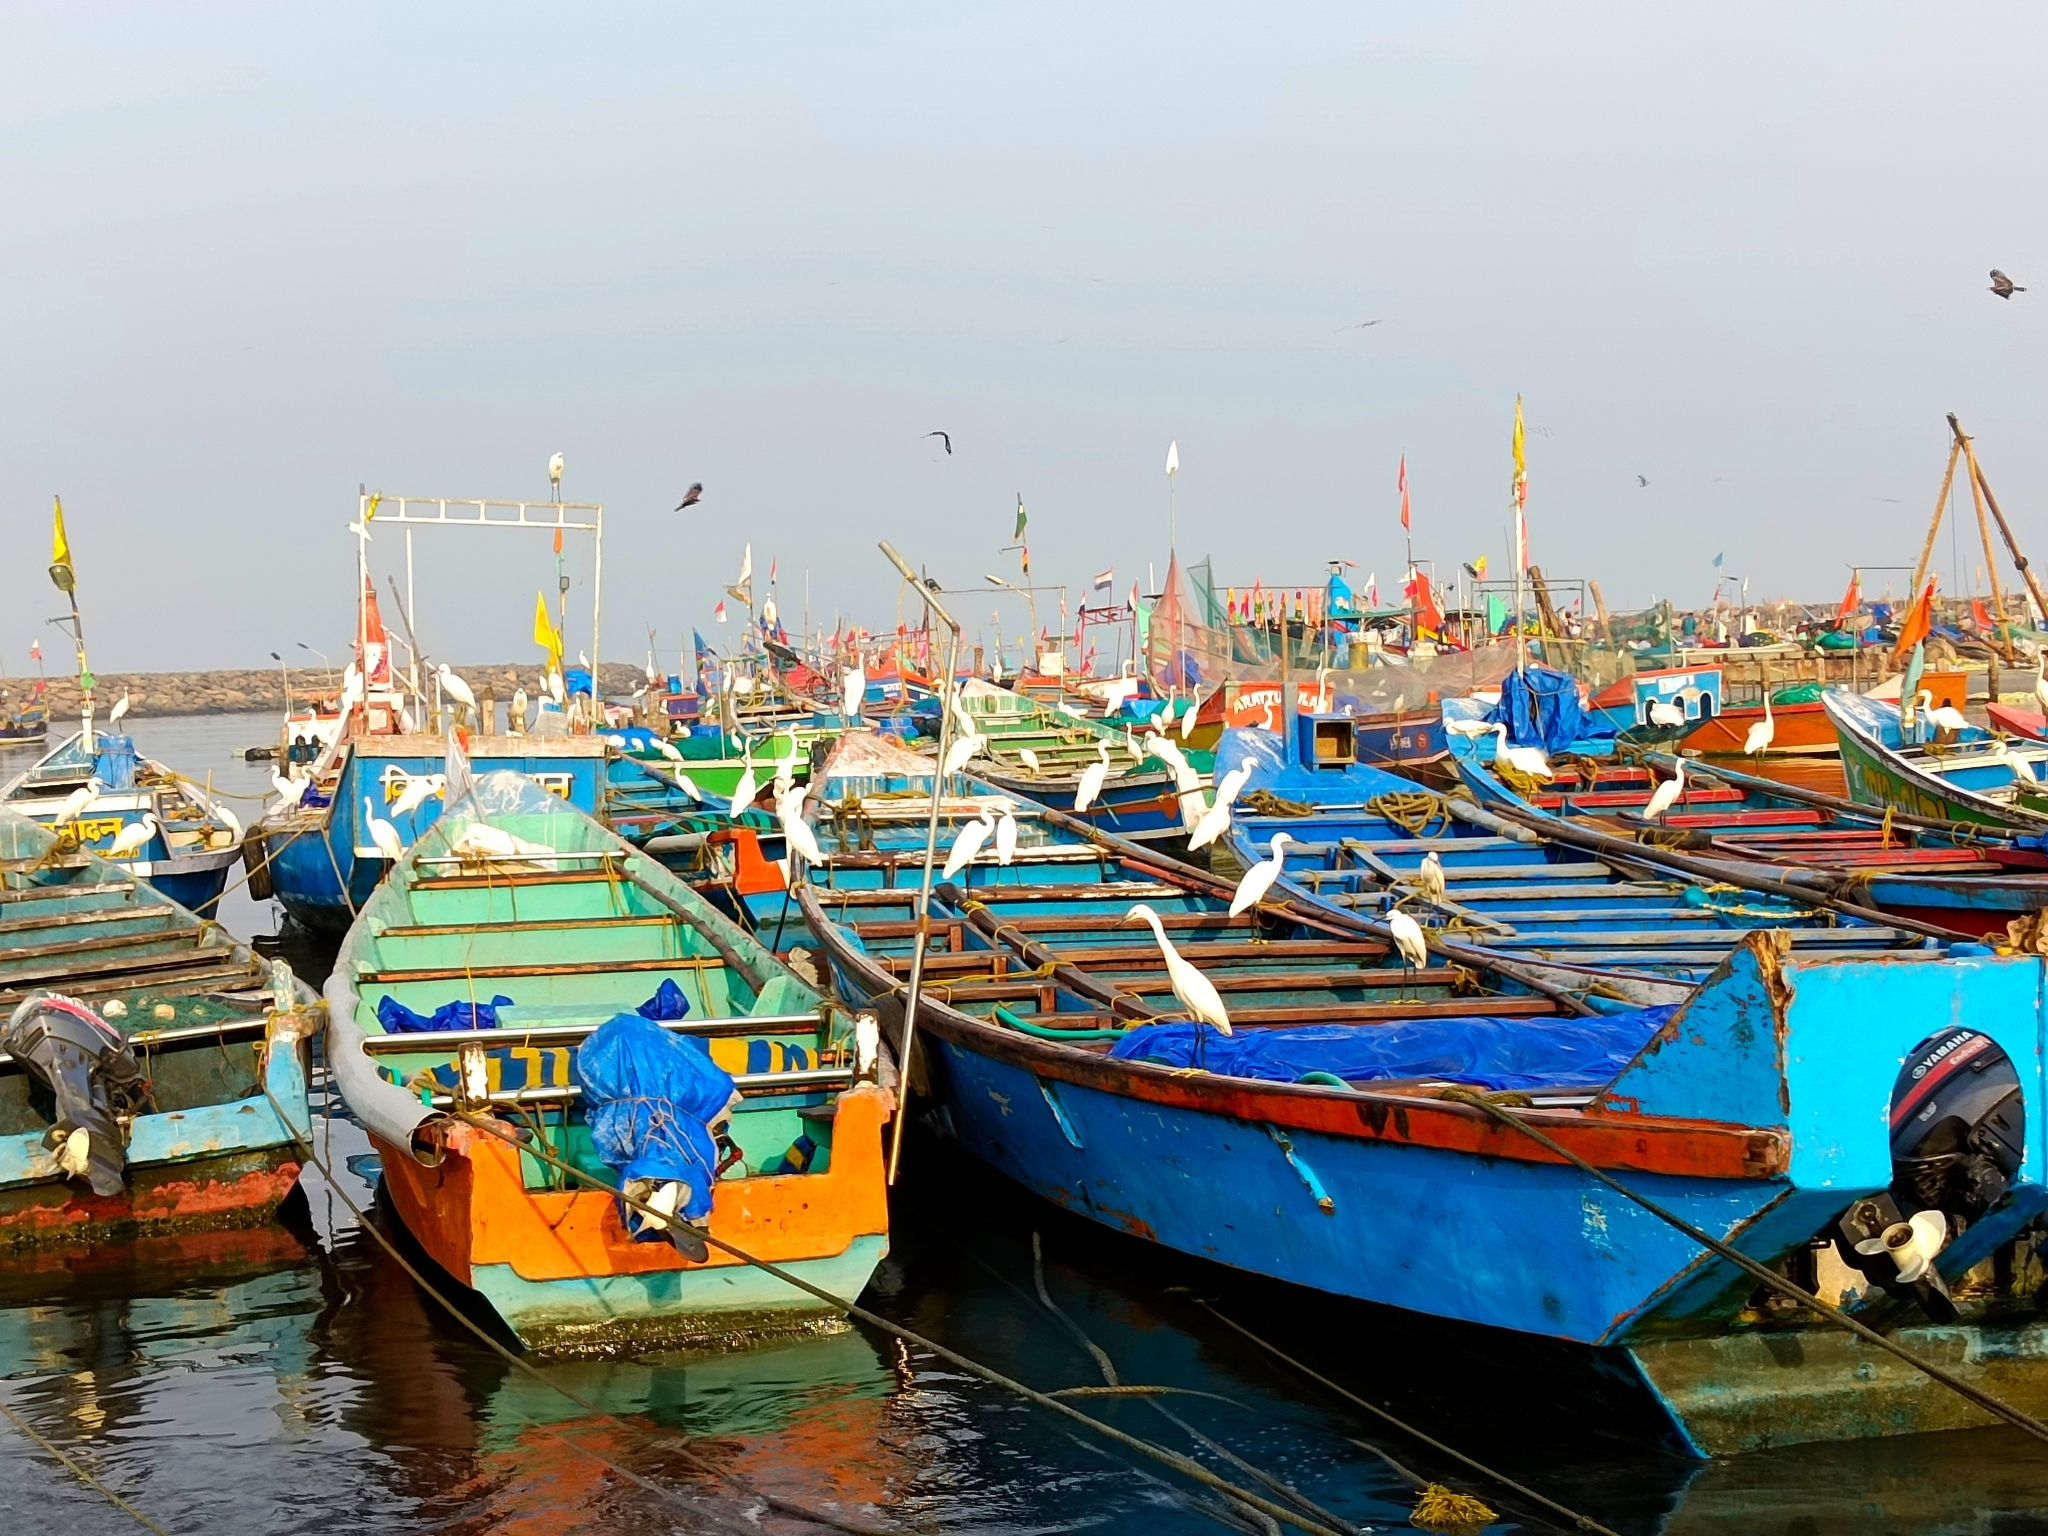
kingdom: Animalia
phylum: Chordata
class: Aves
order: Pelecaniformes
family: Ardeidae
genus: Egretta
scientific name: Egretta garzetta
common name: Little egret
